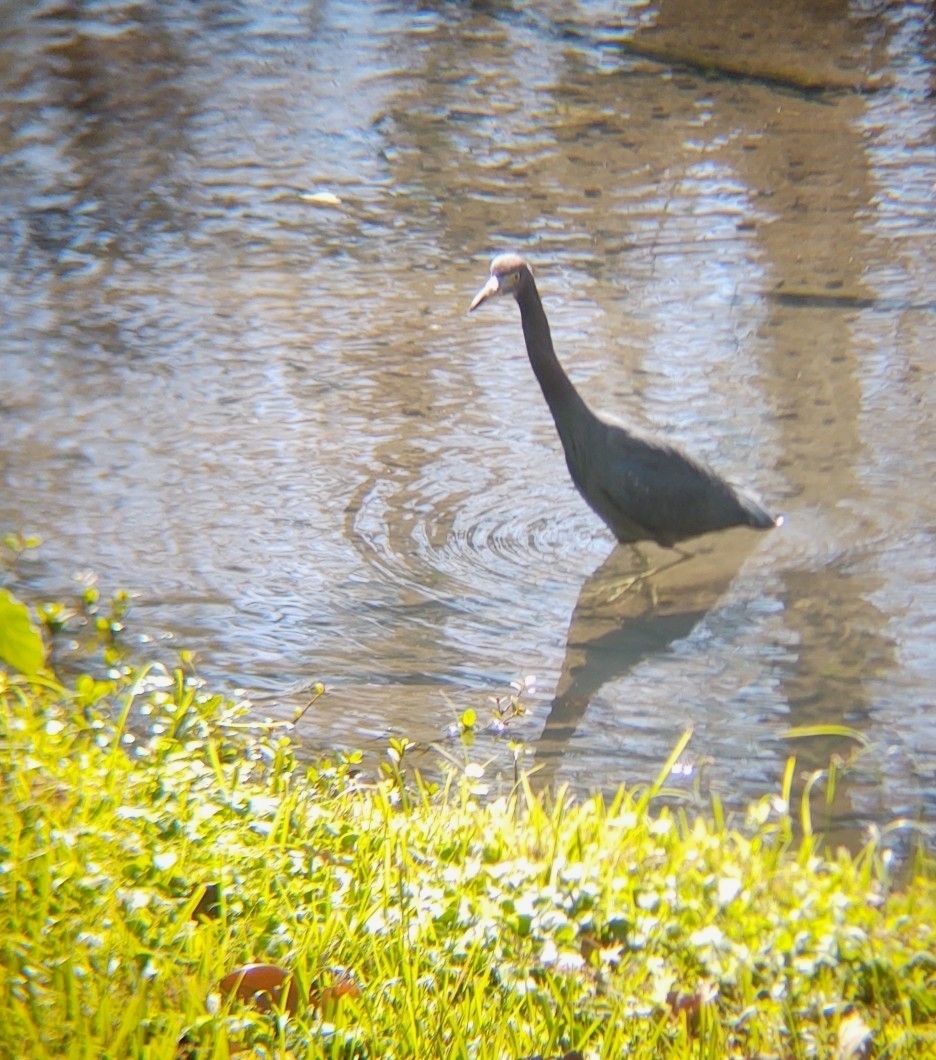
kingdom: Animalia
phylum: Chordata
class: Aves
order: Pelecaniformes
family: Ardeidae
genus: Egretta
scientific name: Egretta caerulea
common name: Little blue heron
